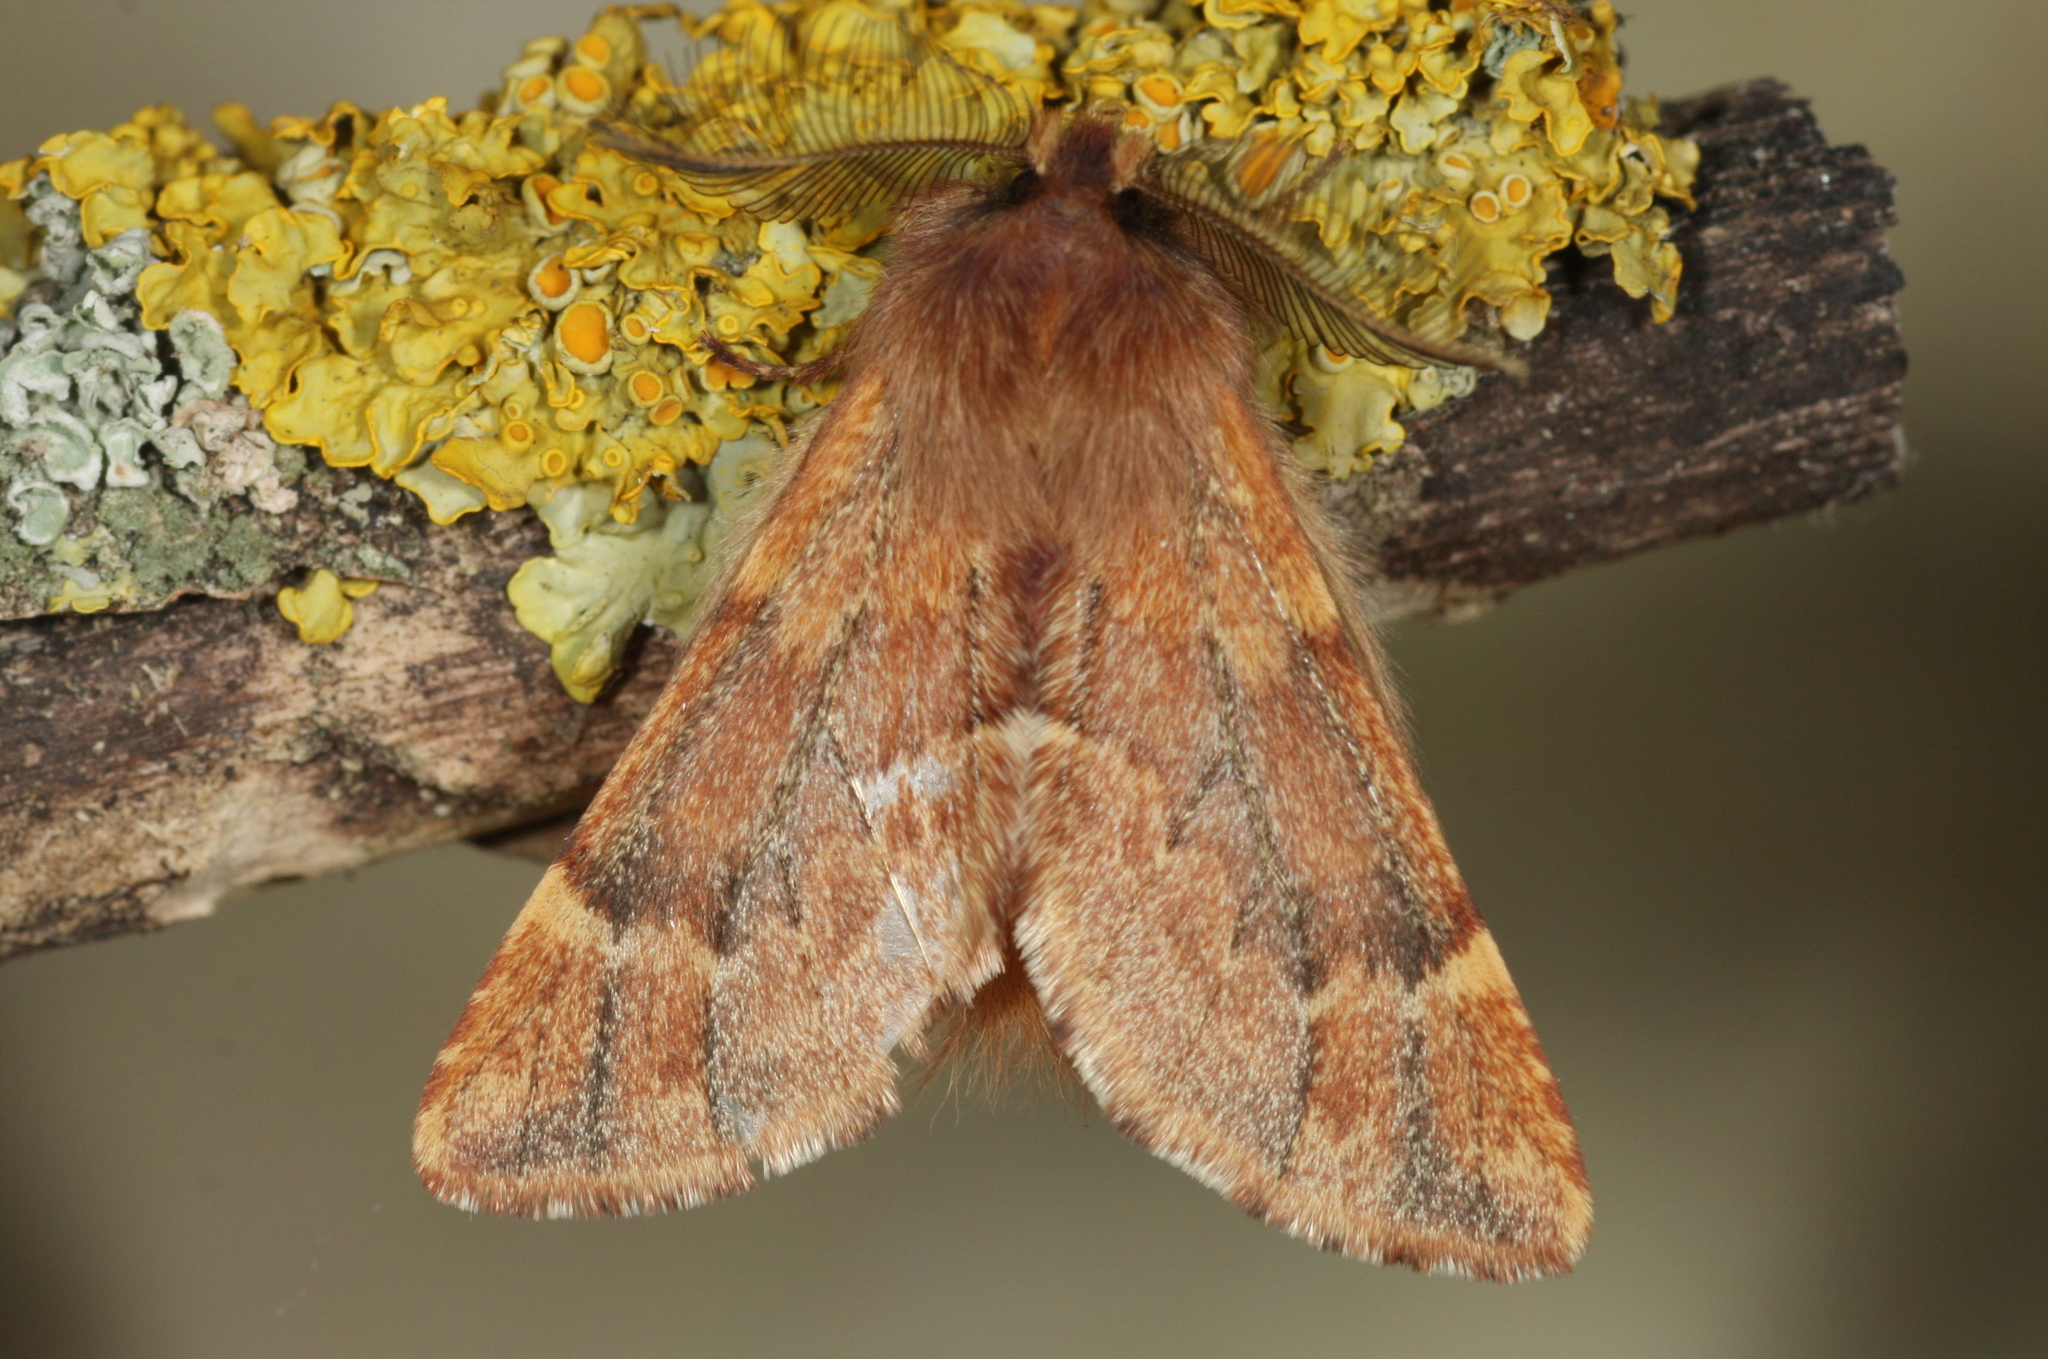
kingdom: Animalia
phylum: Arthropoda
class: Insecta
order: Lepidoptera
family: Notodontidae
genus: Ptilophora
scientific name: Ptilophora plumigera
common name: Plumed prominent
